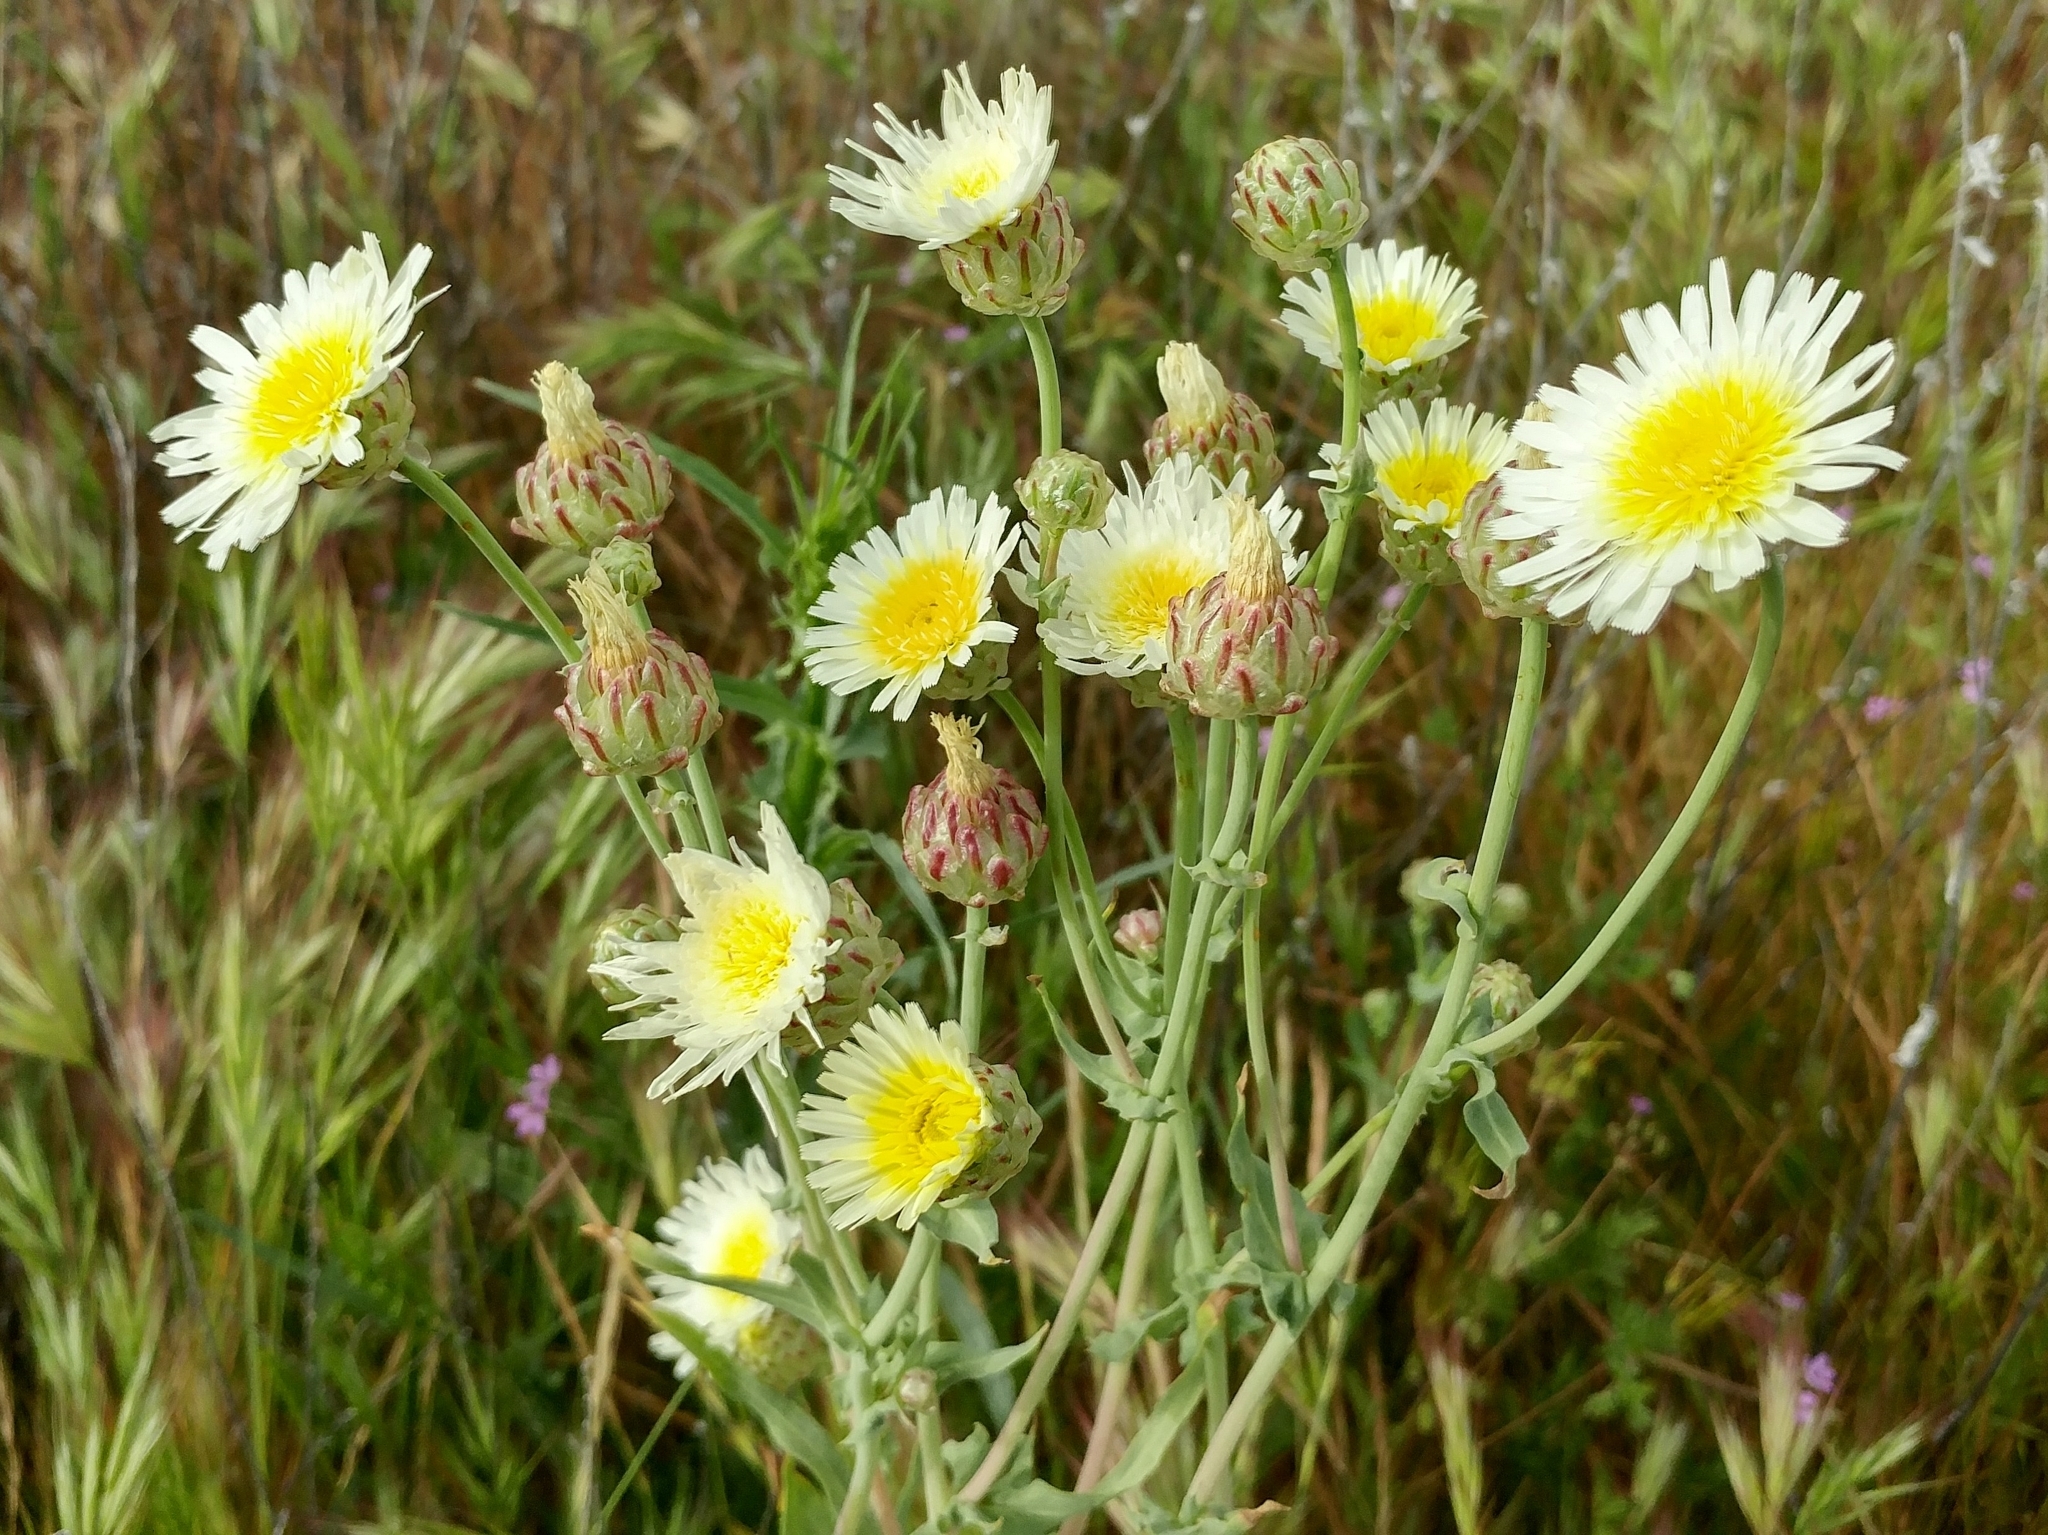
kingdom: Plantae
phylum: Tracheophyta
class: Magnoliopsida
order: Asterales
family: Asteraceae
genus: Malacothrix
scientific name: Malacothrix coulteri
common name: Snake's-head
